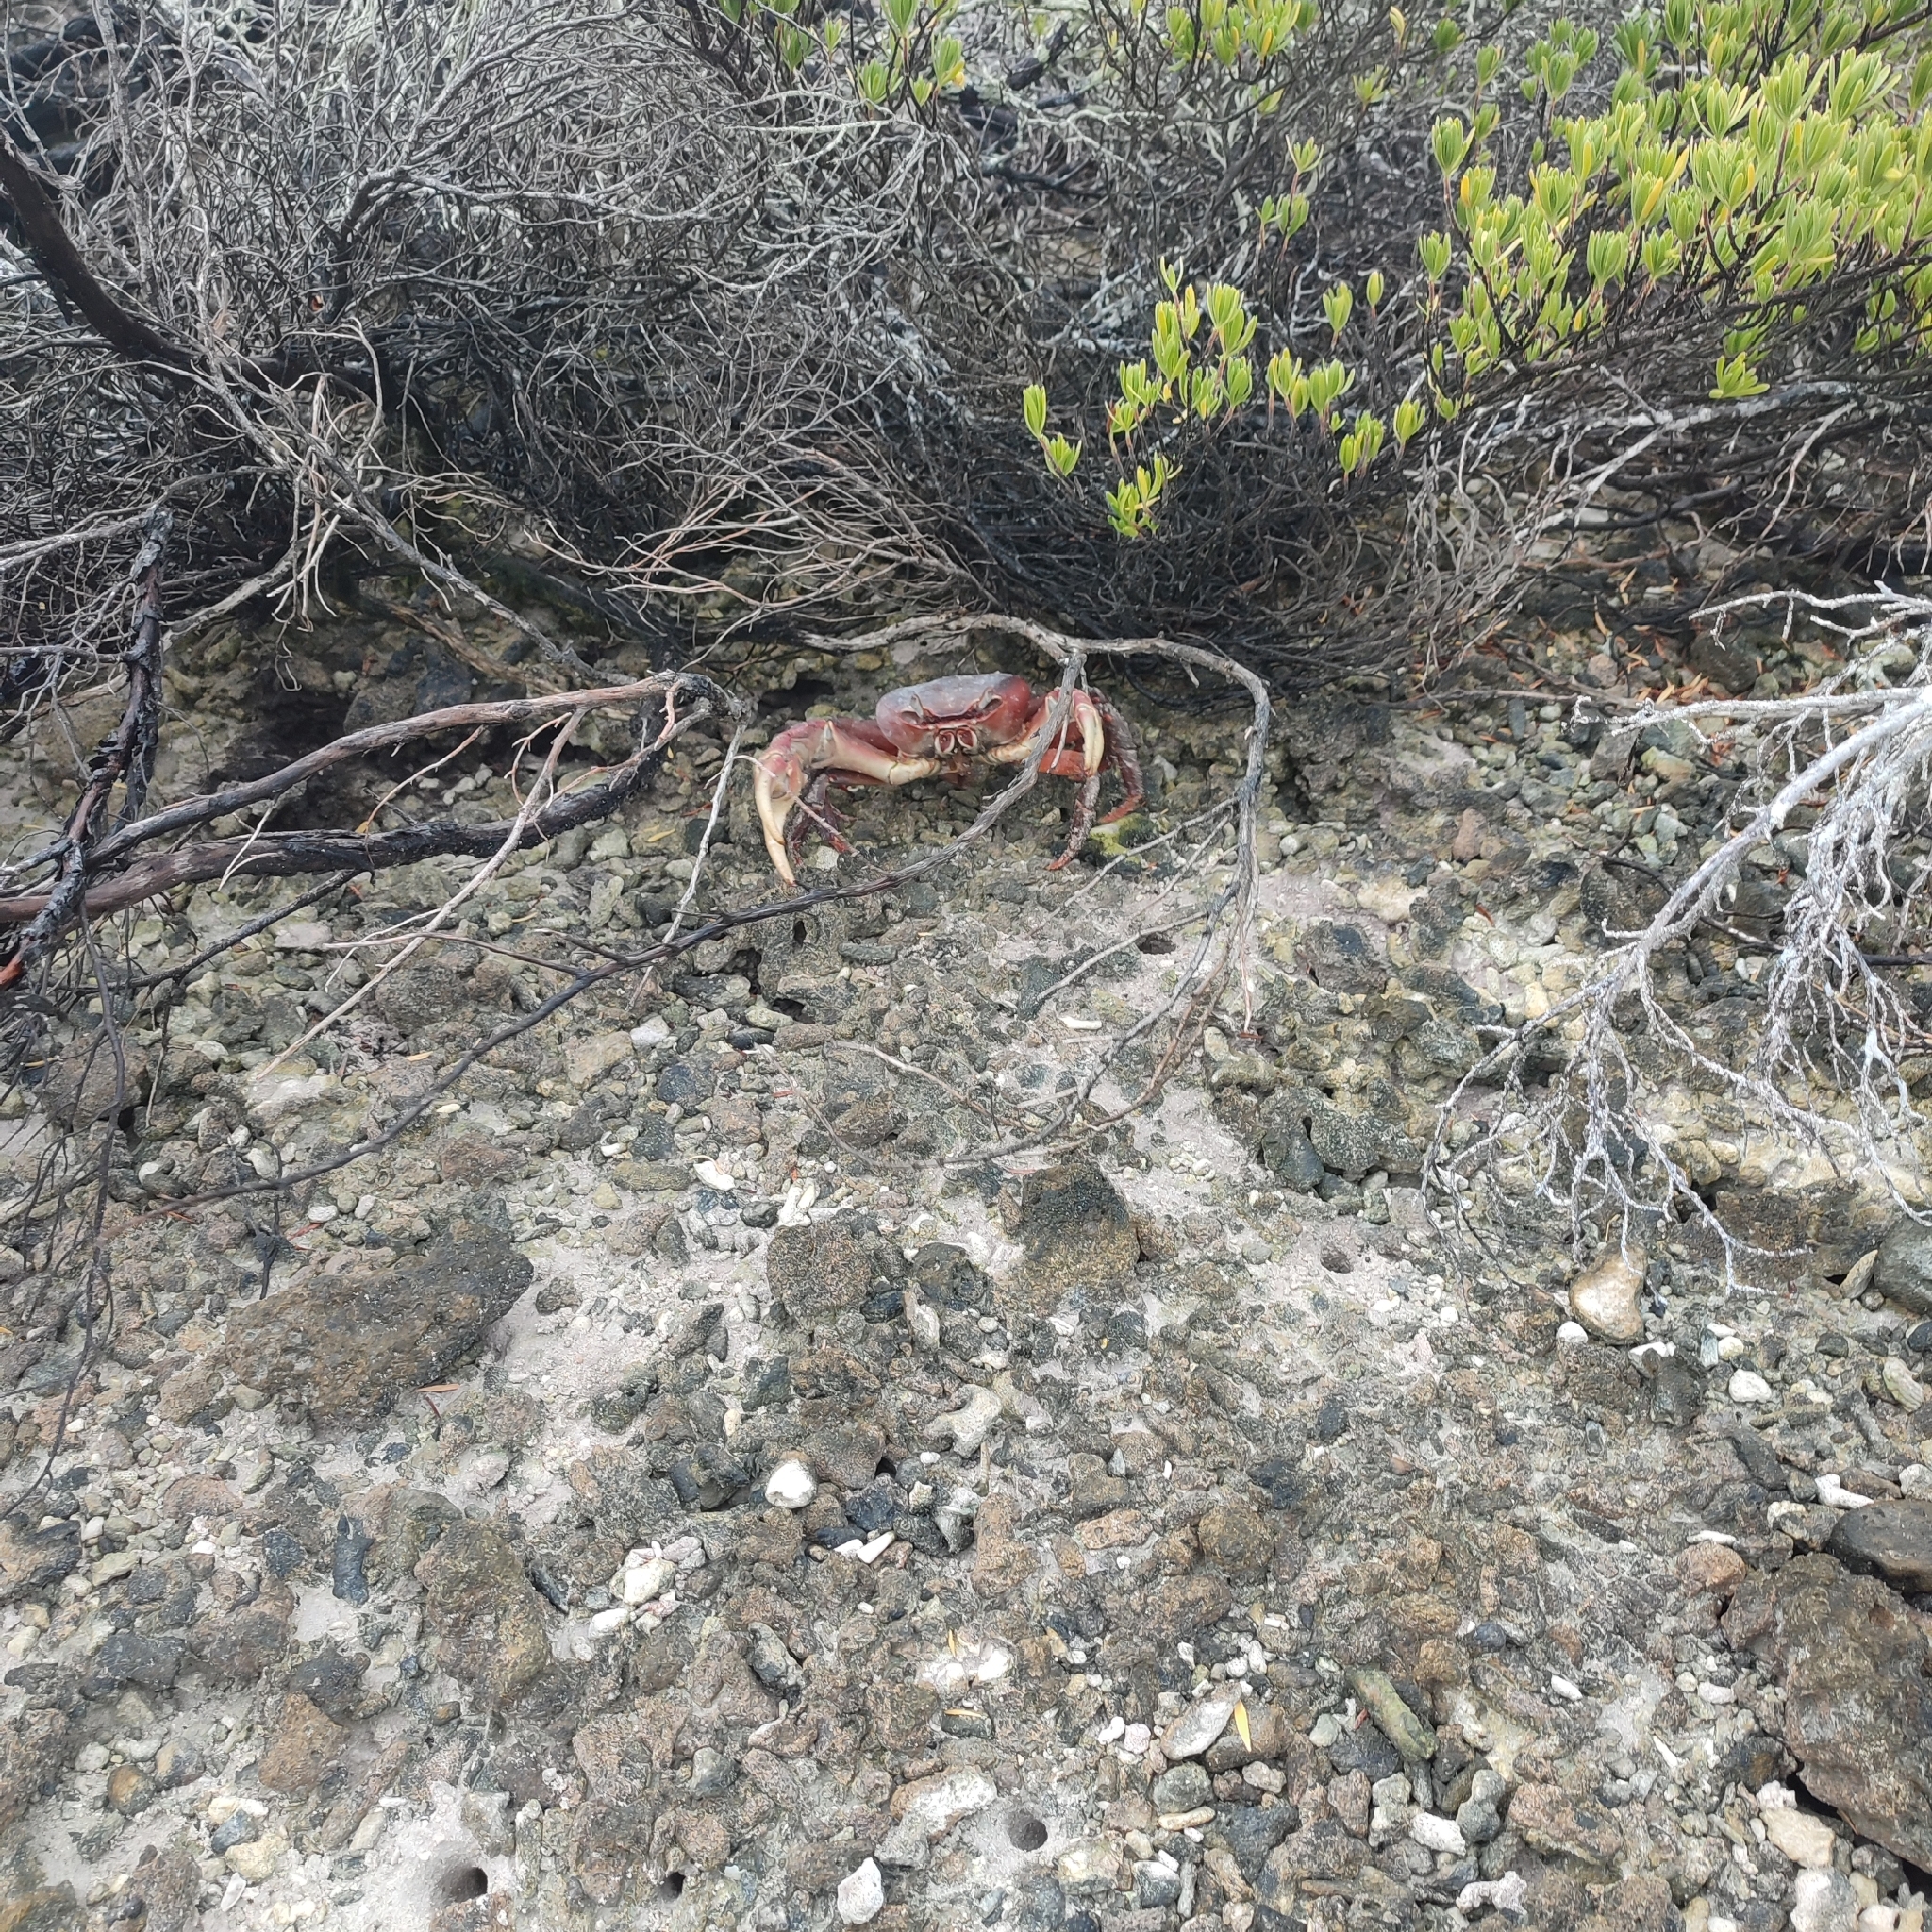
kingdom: Animalia
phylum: Arthropoda
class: Malacostraca
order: Decapoda
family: Gecarcinidae
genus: Cardisoma
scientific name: Cardisoma carnifex
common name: Brown land crab
